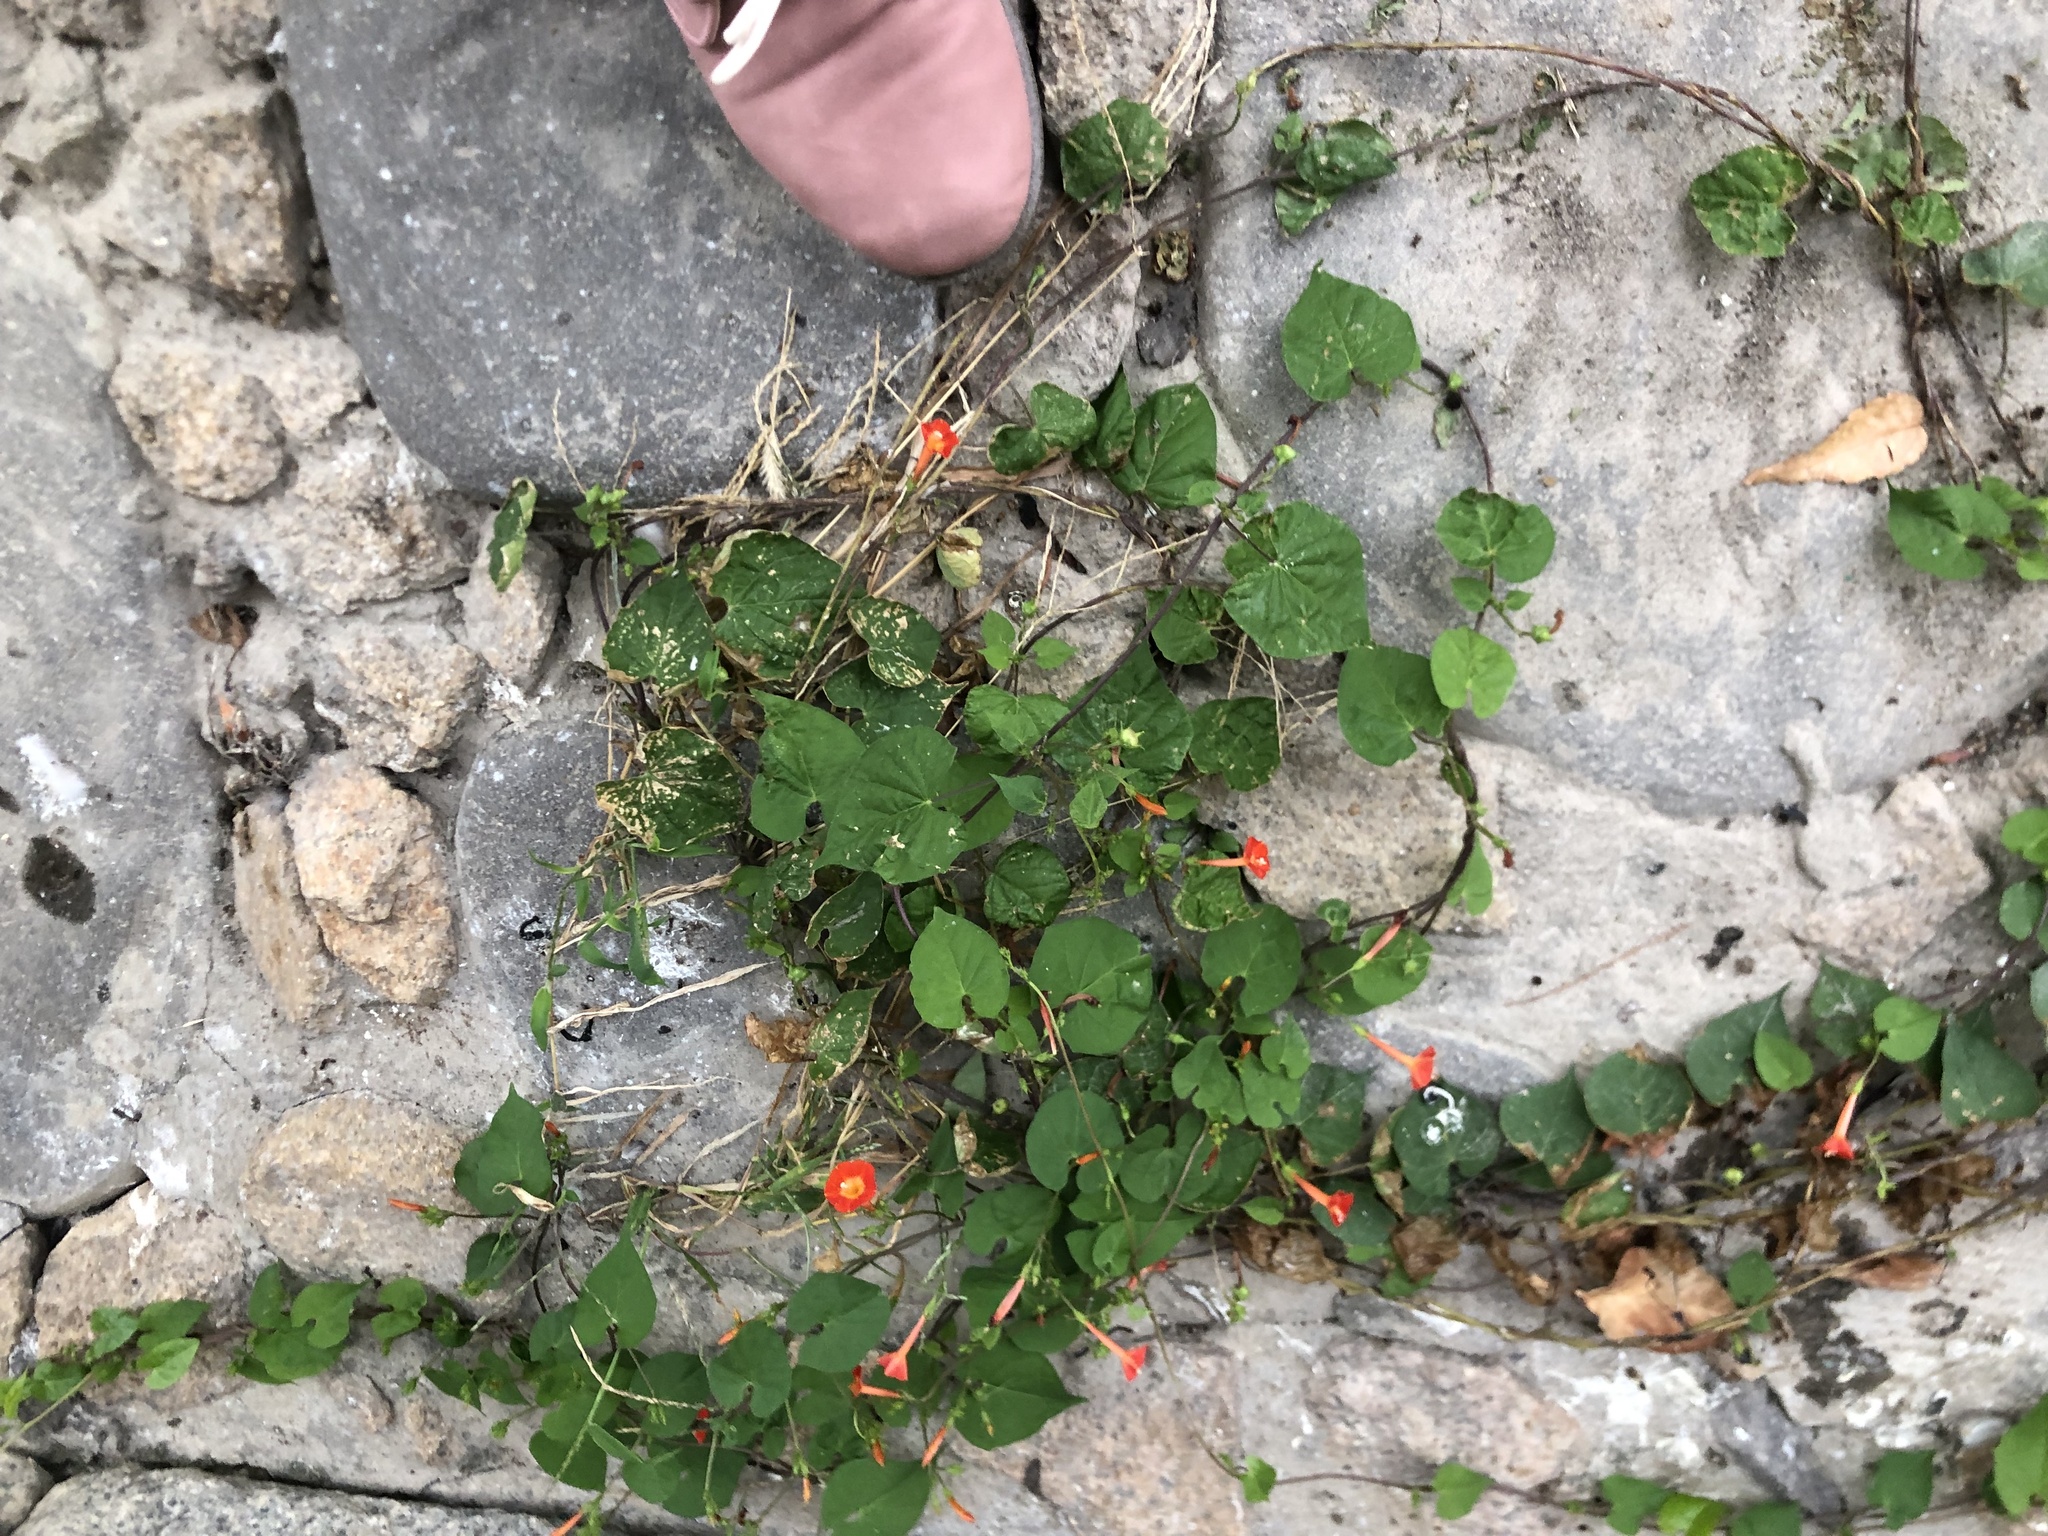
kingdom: Plantae
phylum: Tracheophyta
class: Magnoliopsida
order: Solanales
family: Convolvulaceae
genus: Ipomoea
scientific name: Ipomoea coccinea
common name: Red morning-glory
